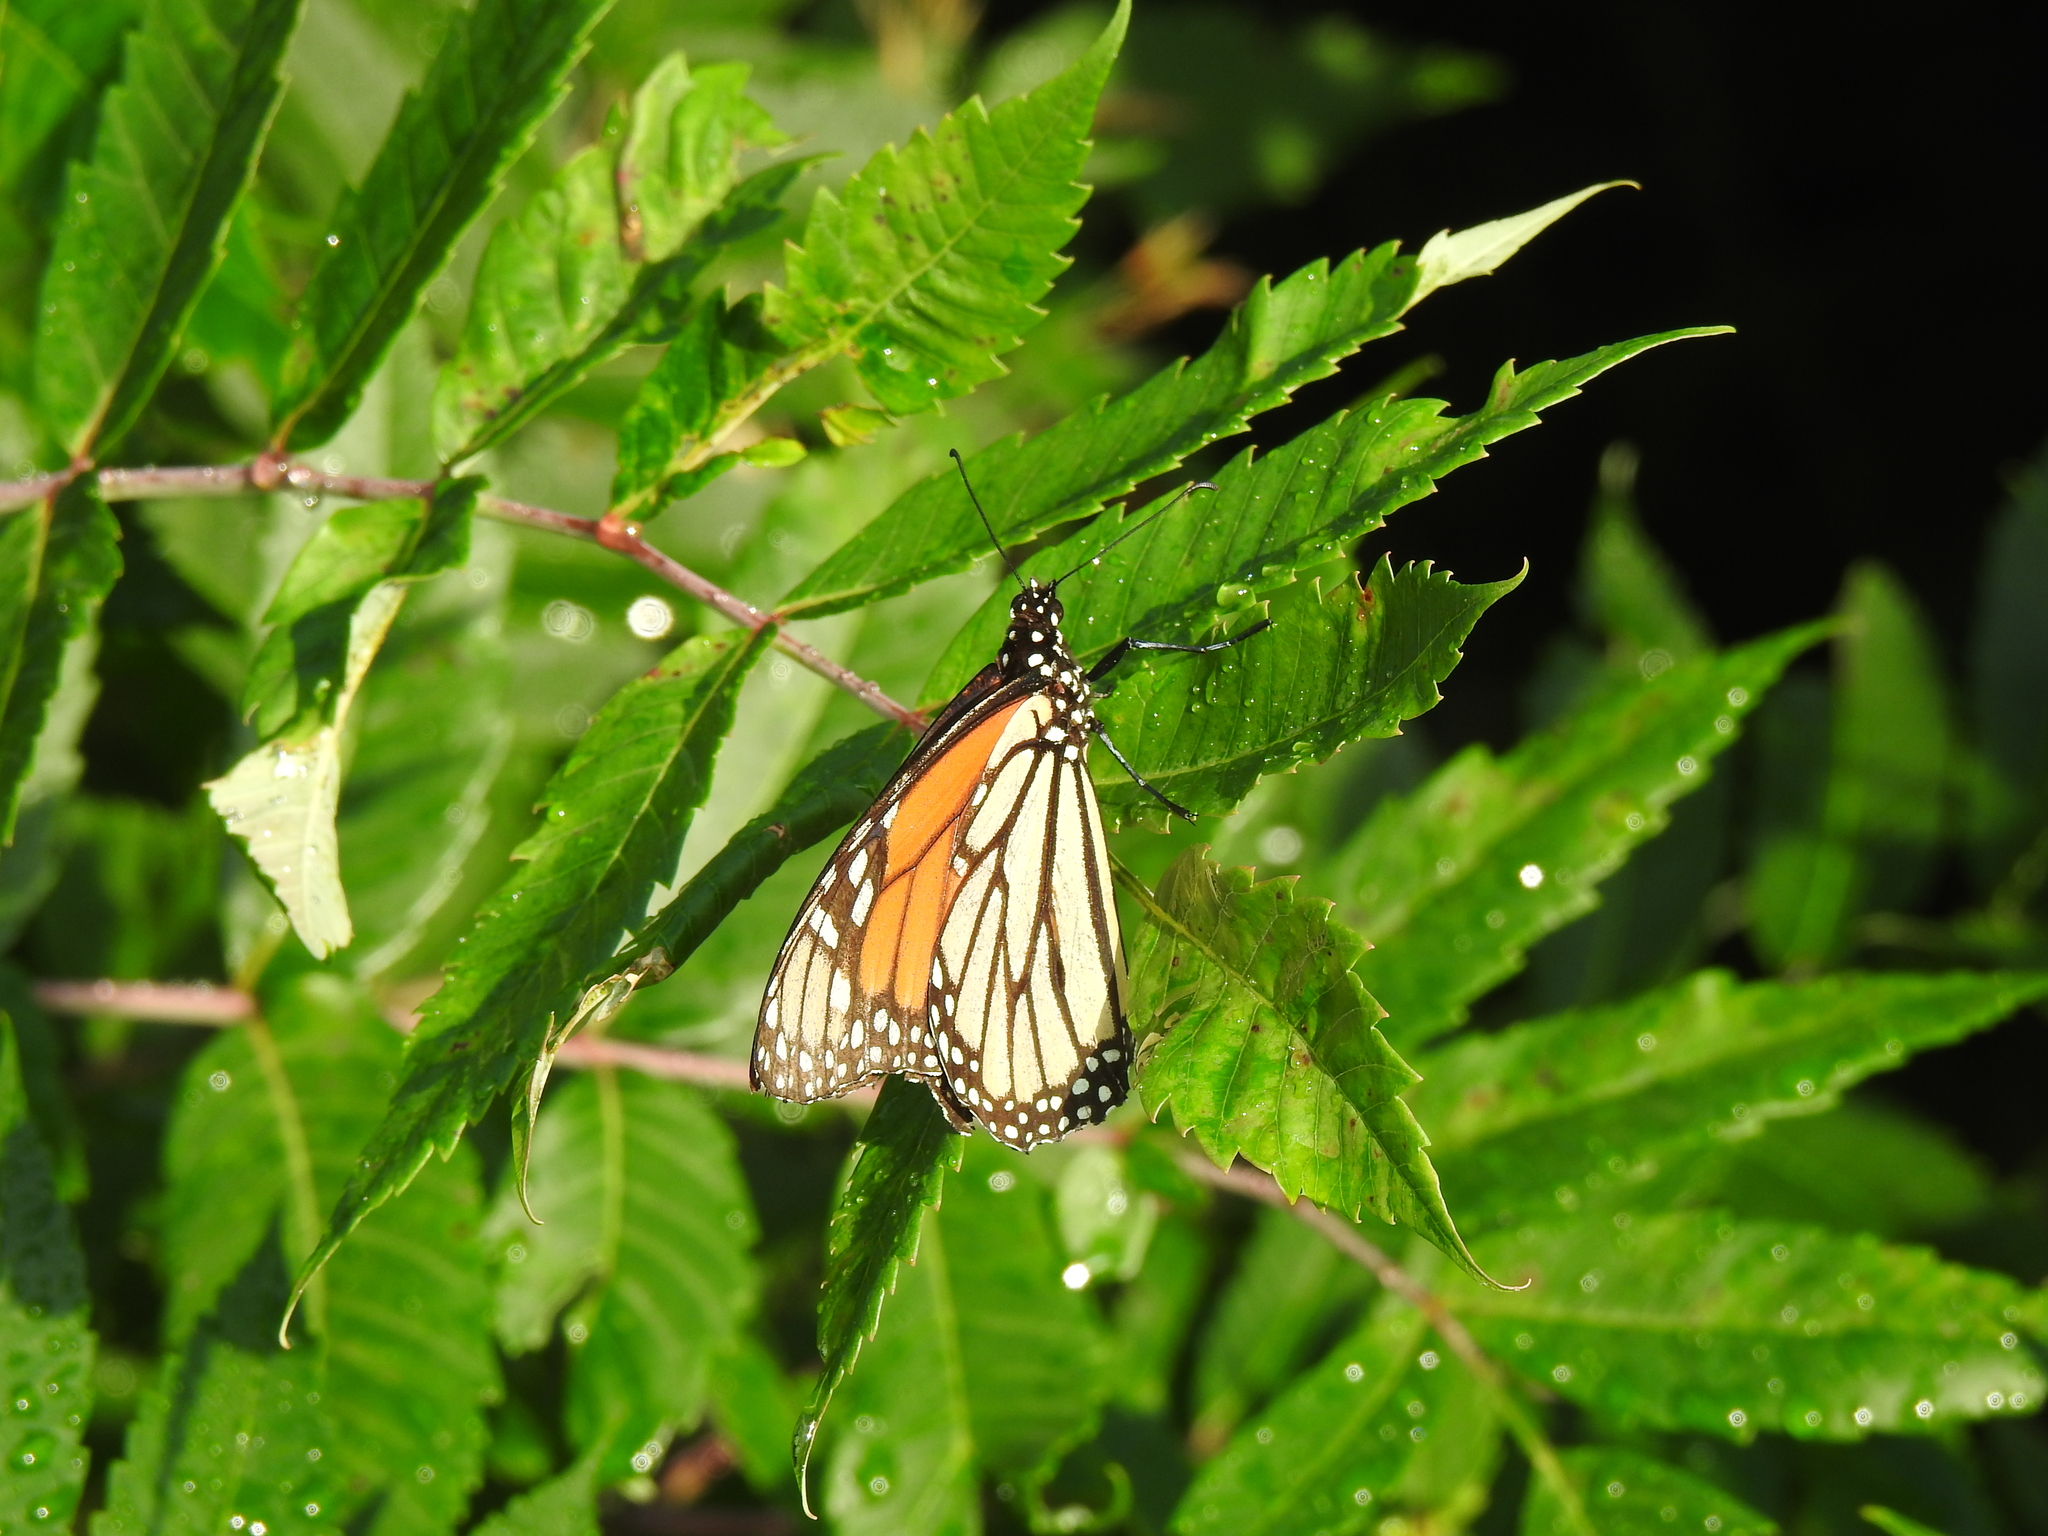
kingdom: Animalia
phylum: Arthropoda
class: Insecta
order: Lepidoptera
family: Nymphalidae
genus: Danaus
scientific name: Danaus plexippus
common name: Monarch
